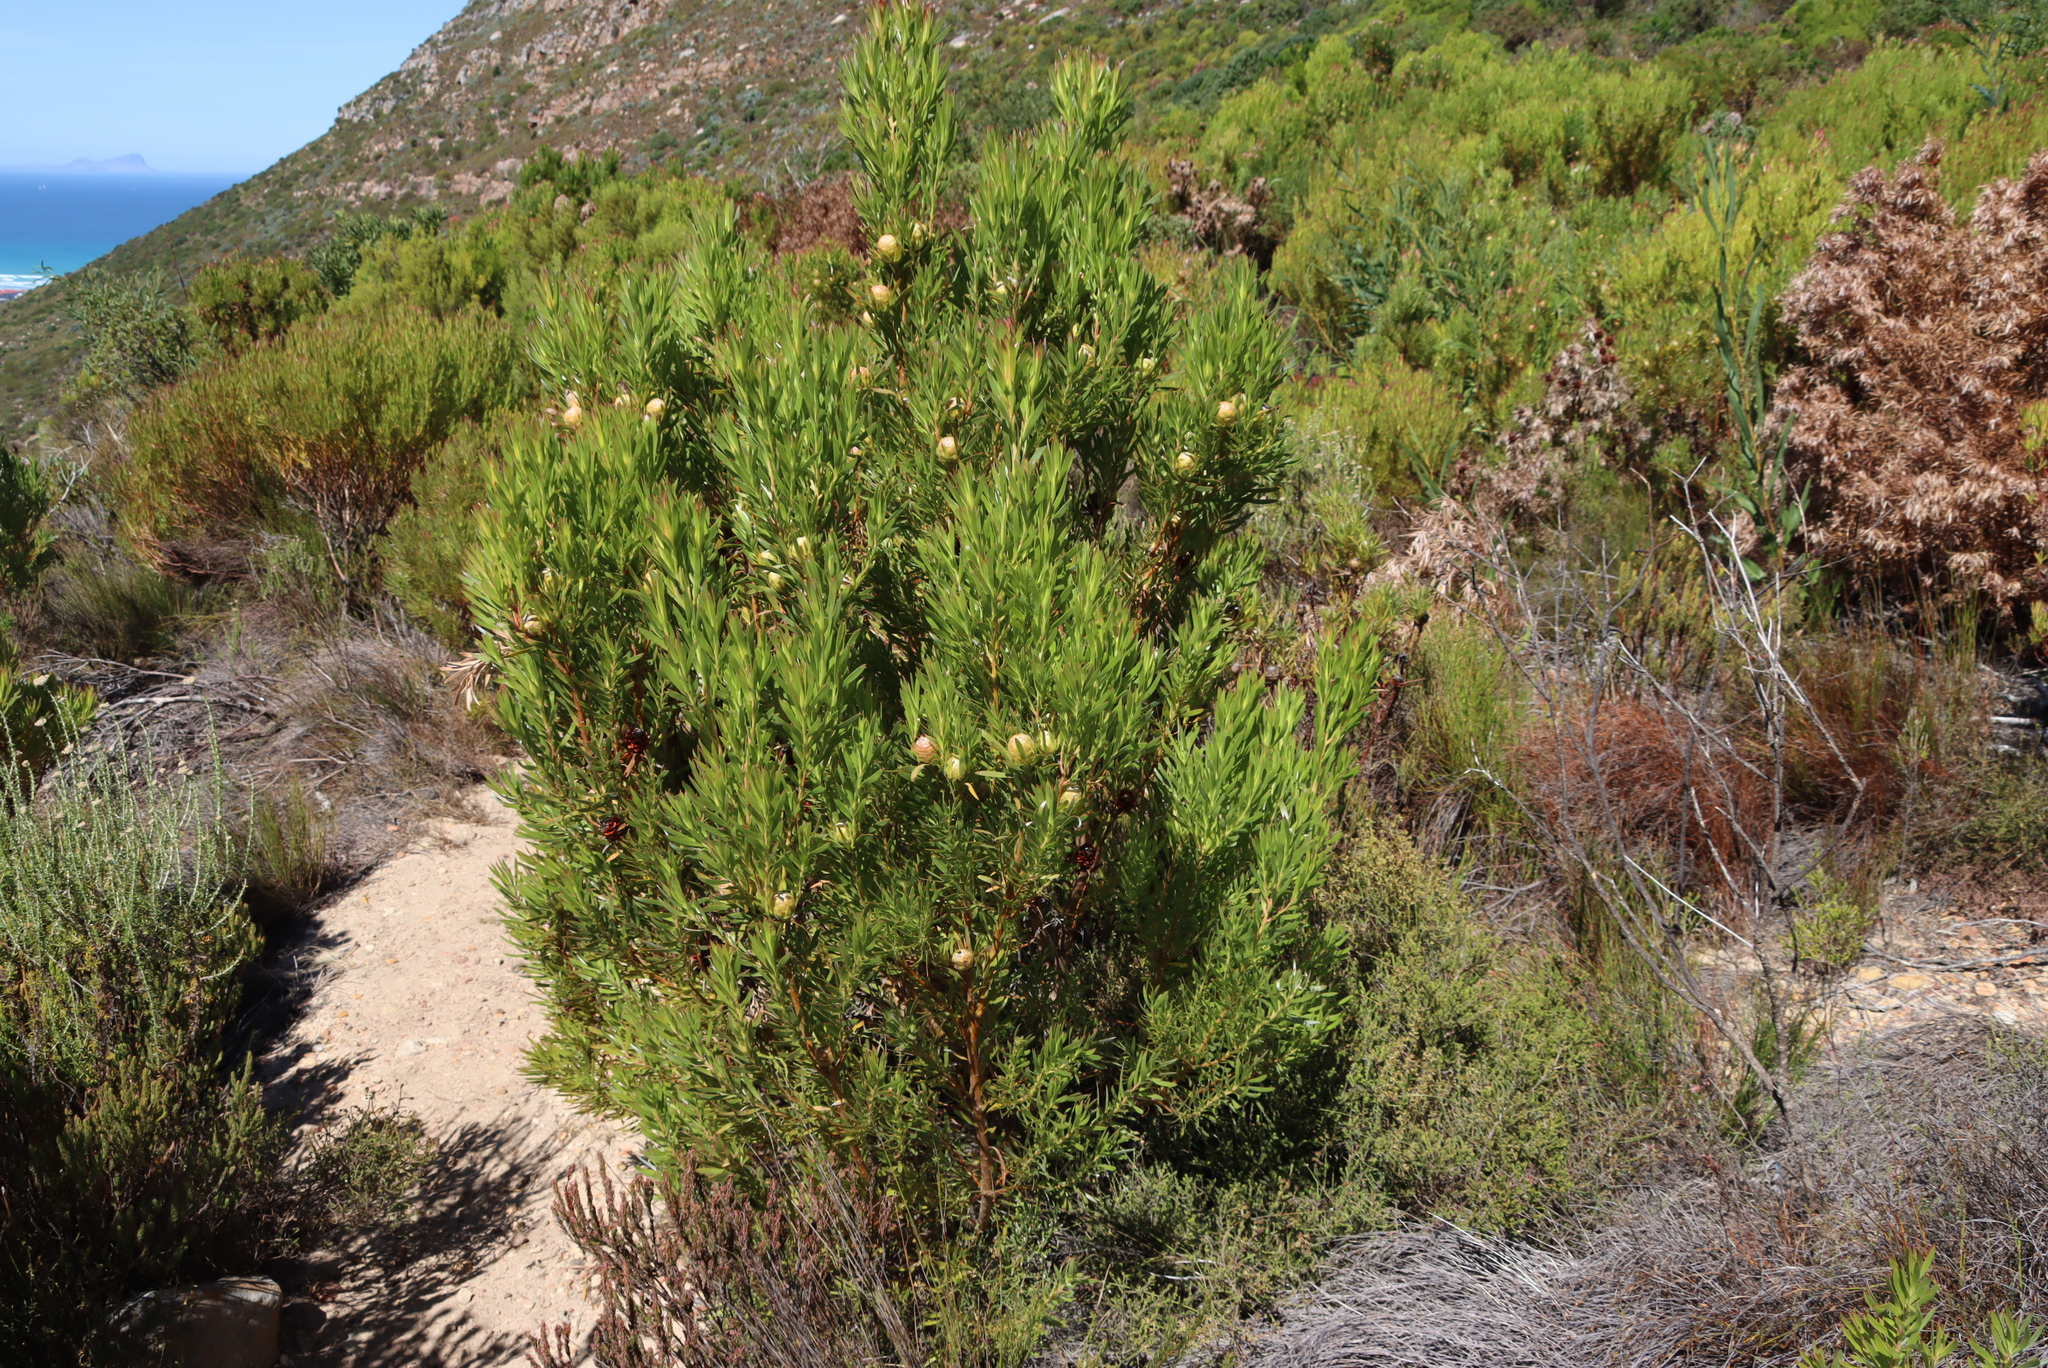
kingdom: Plantae
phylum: Tracheophyta
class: Magnoliopsida
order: Proteales
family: Proteaceae
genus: Leucadendron
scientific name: Leucadendron xanthoconus
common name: Sickle-leaf conebush
